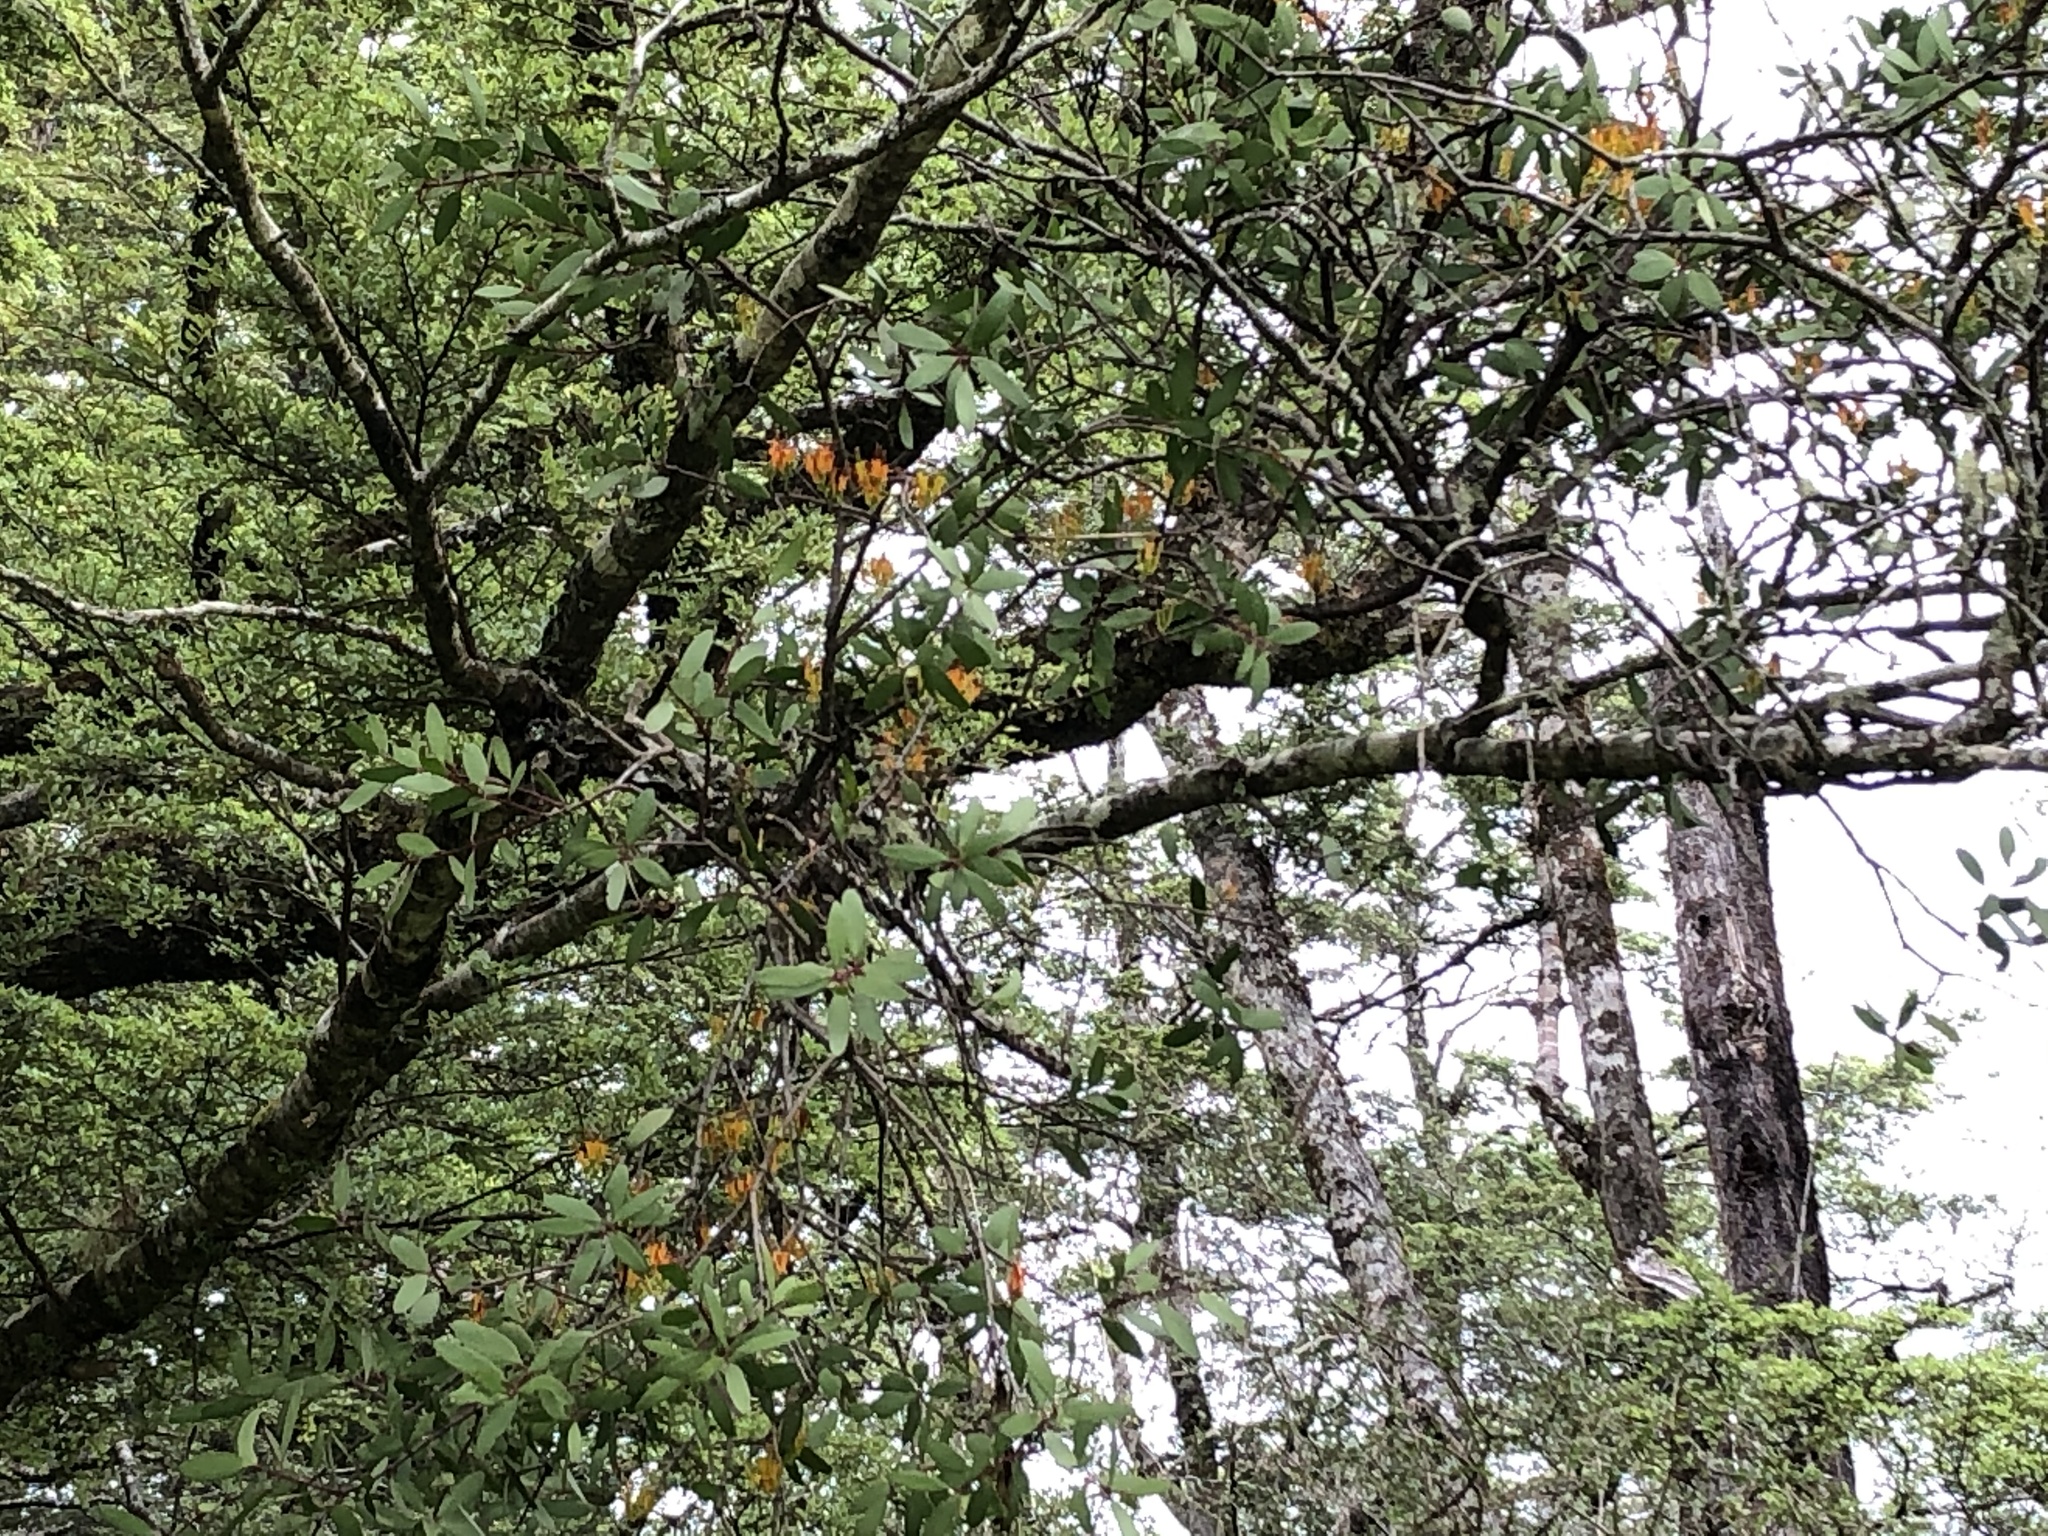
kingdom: Plantae
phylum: Tracheophyta
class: Magnoliopsida
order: Santalales
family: Loranthaceae
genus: Alepis
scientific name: Alepis flavida
